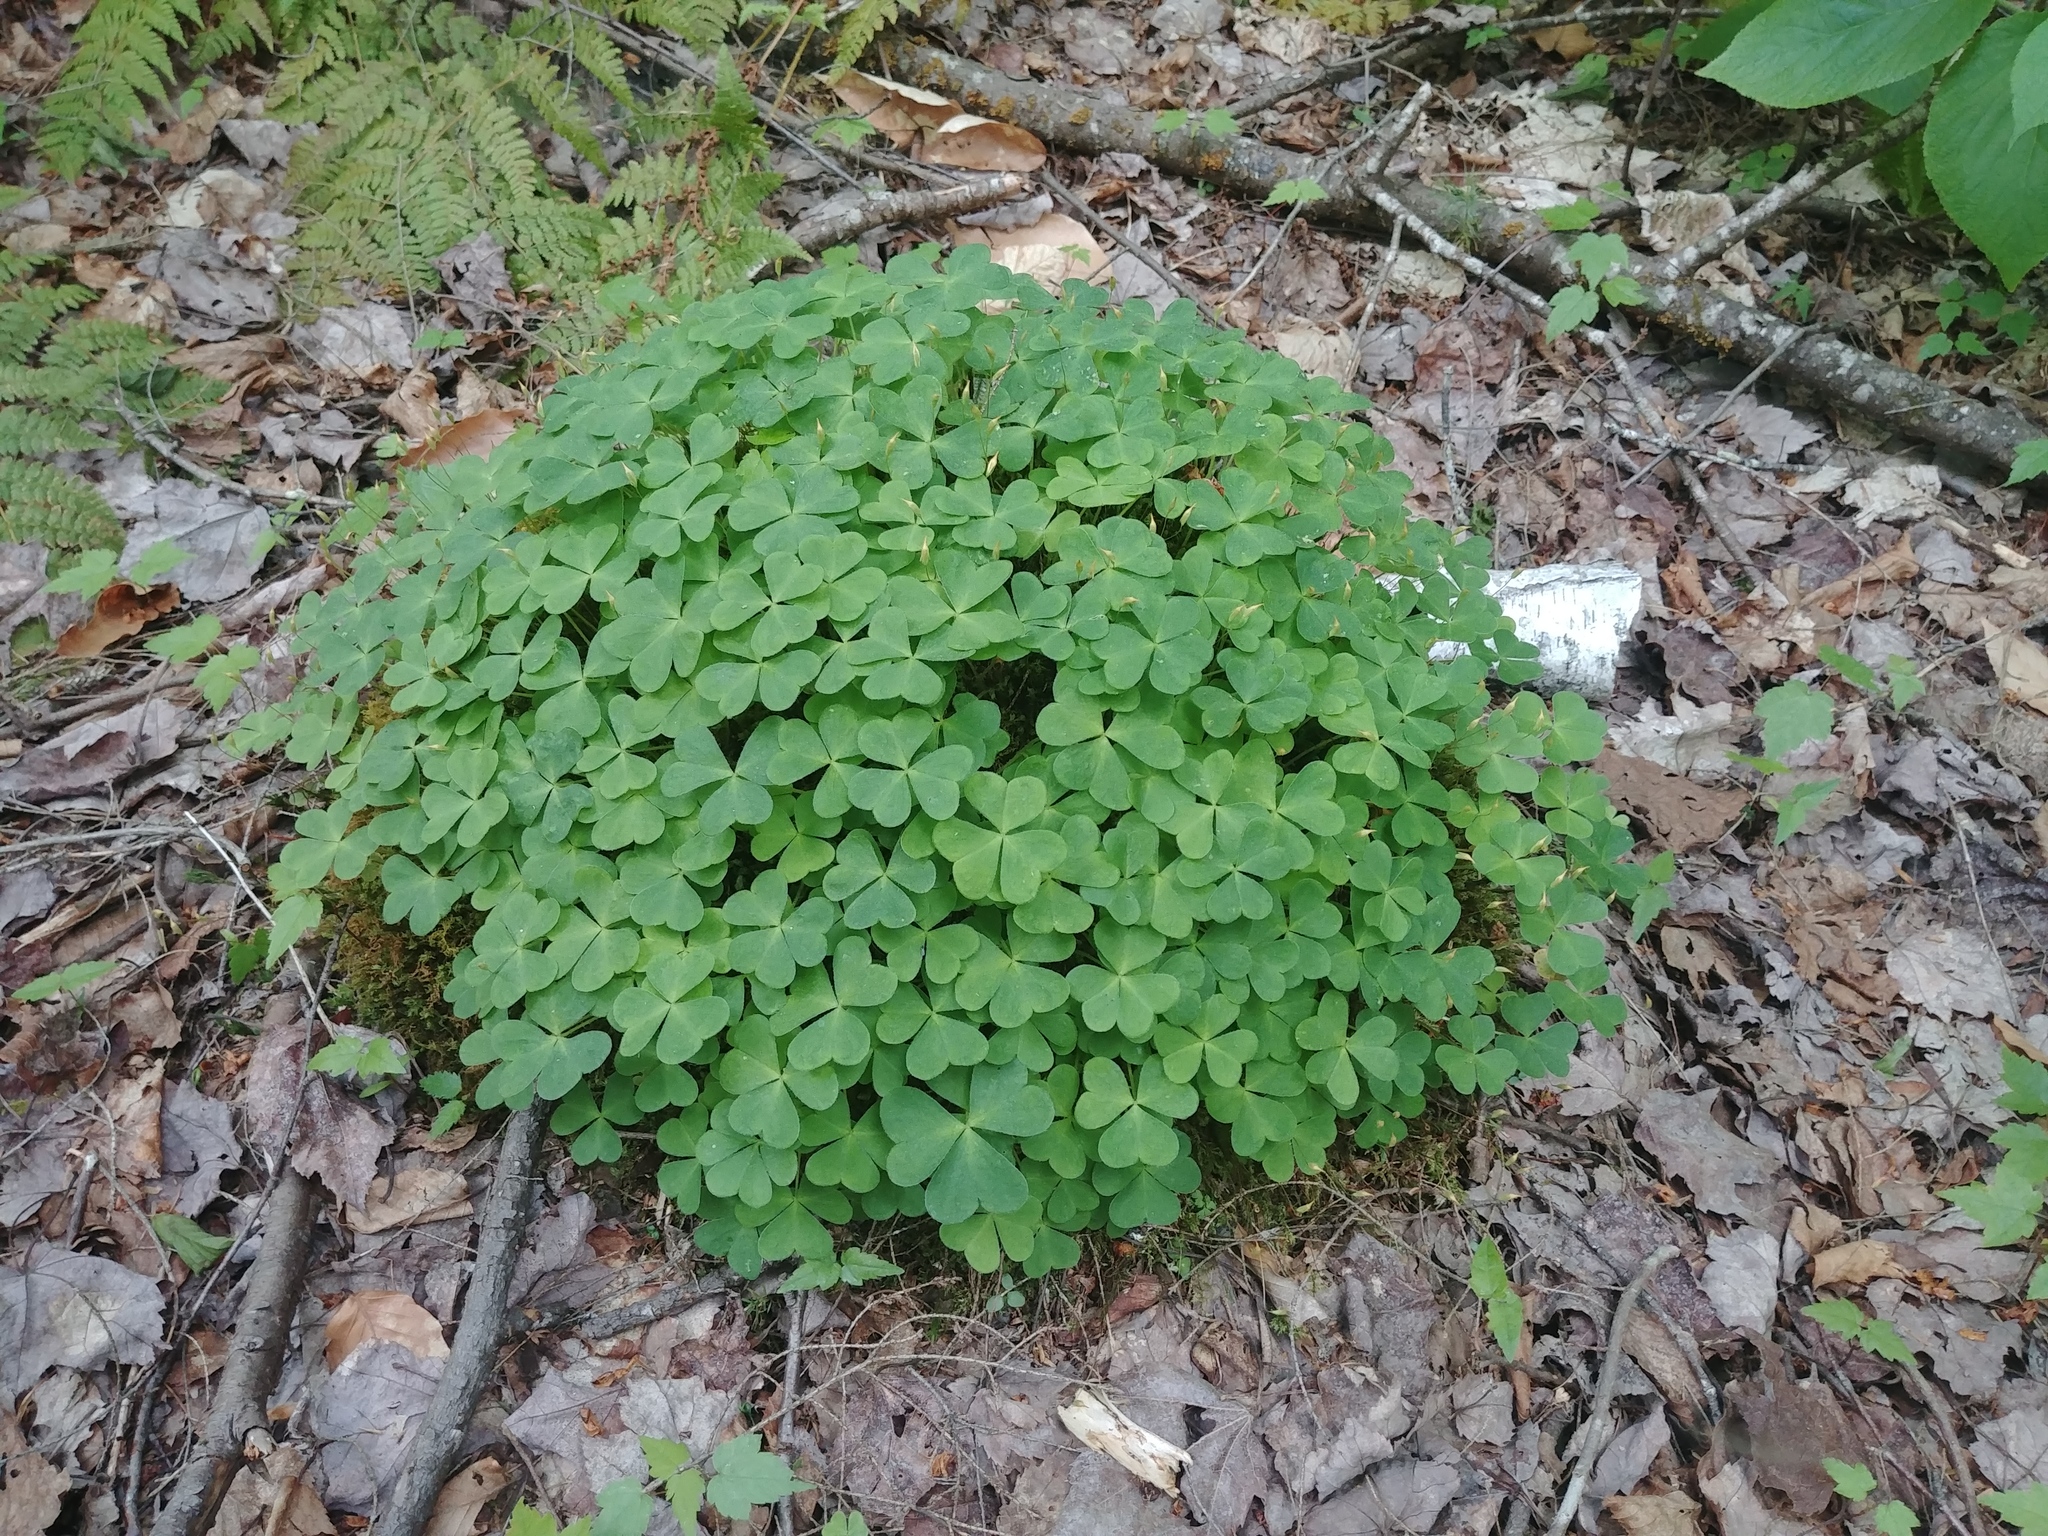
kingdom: Plantae
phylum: Tracheophyta
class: Magnoliopsida
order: Oxalidales
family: Oxalidaceae
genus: Oxalis
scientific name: Oxalis montana
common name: American wood-sorrel
